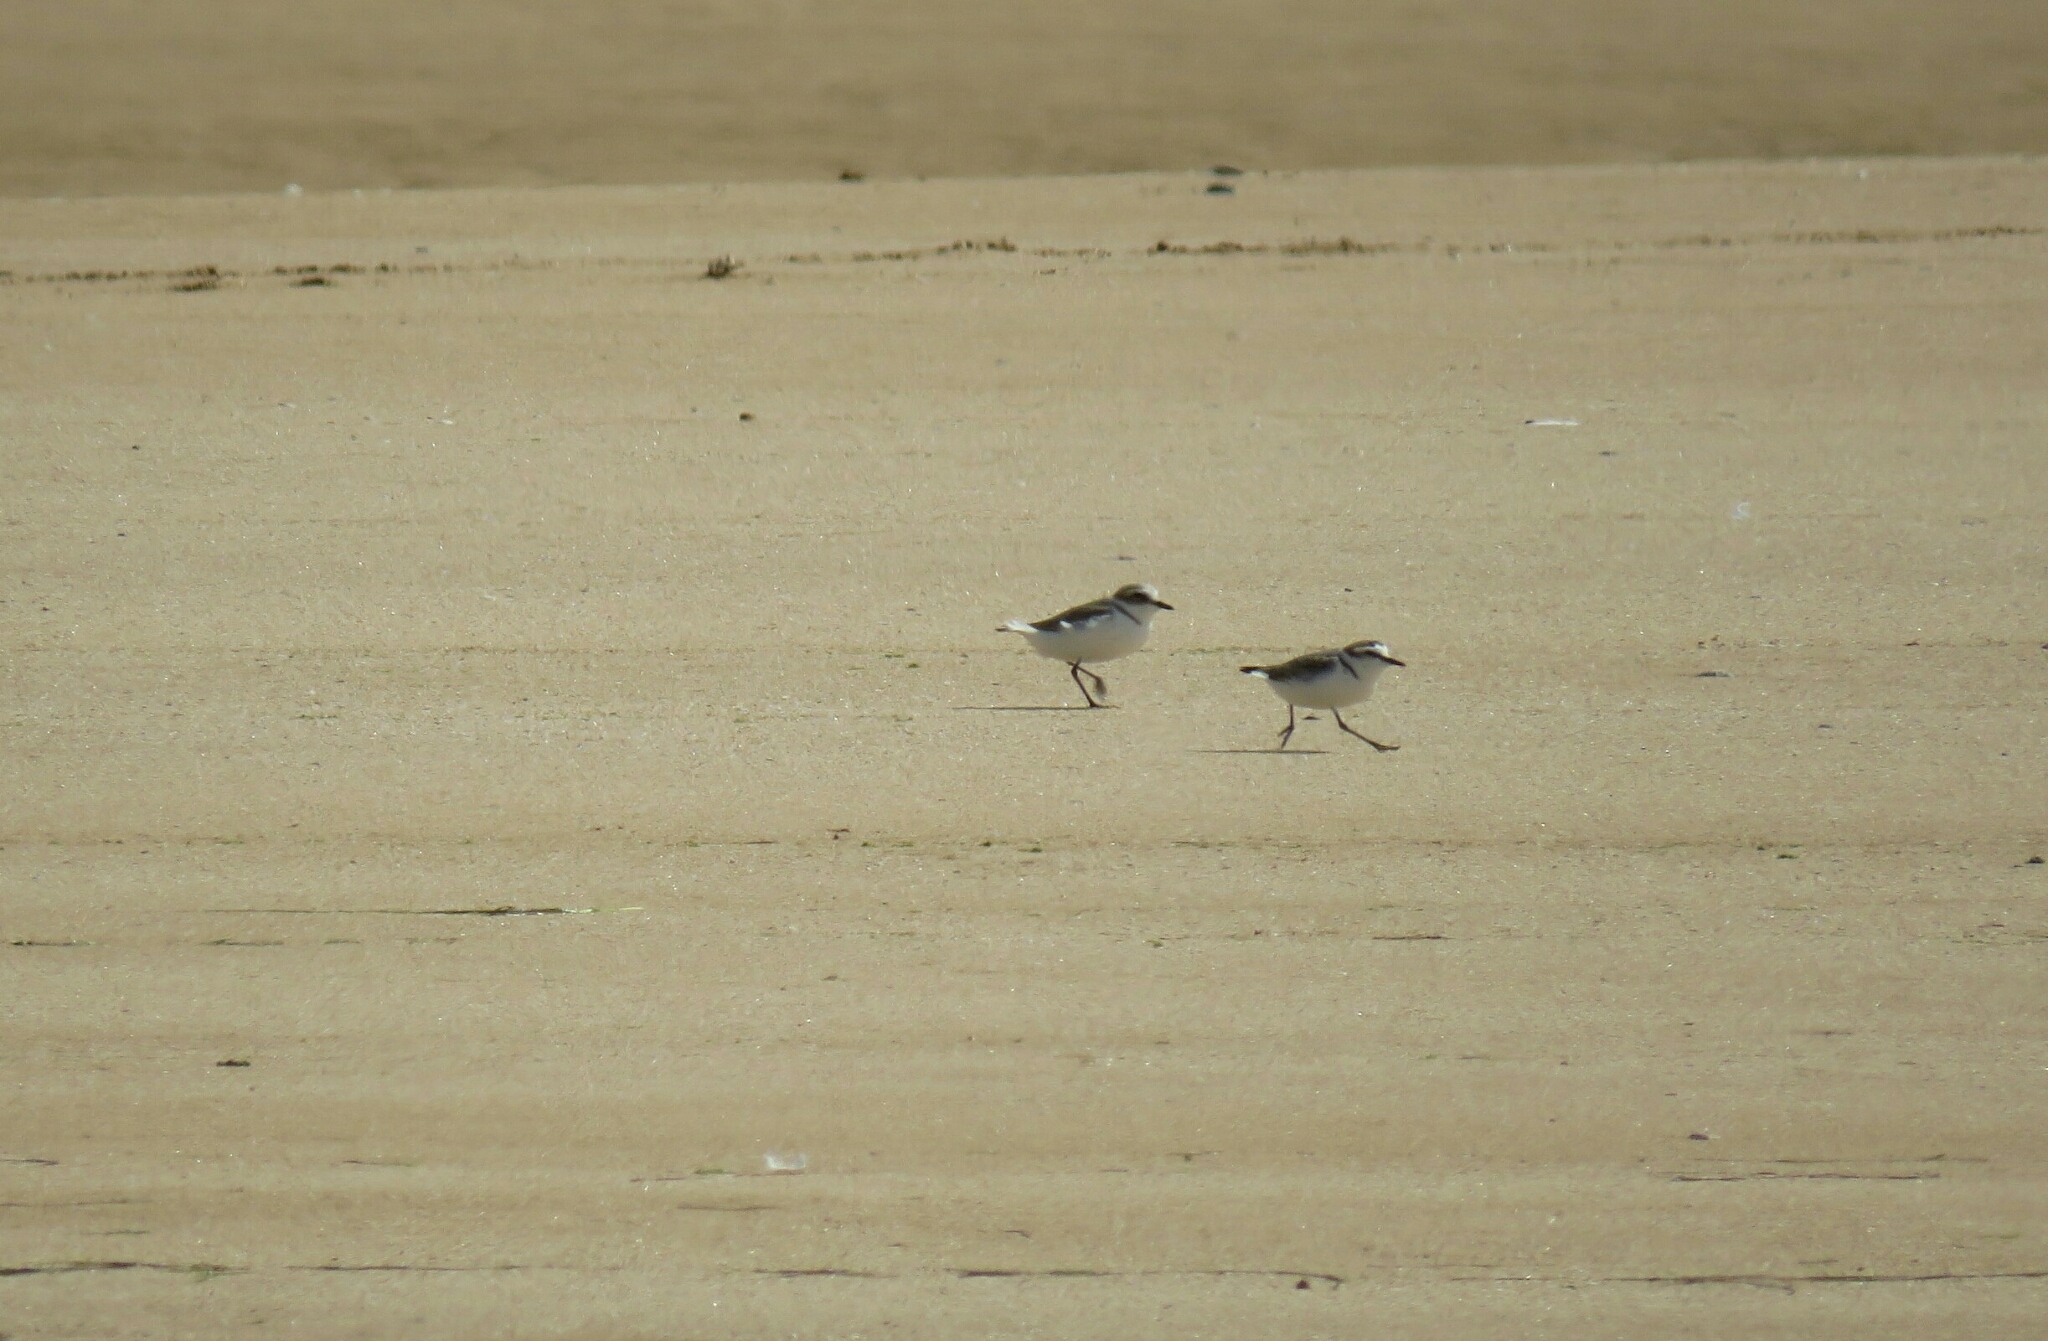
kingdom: Animalia
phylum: Chordata
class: Aves
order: Charadriiformes
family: Charadriidae
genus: Charadrius
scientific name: Charadrius alexandrinus
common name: Kentish plover
